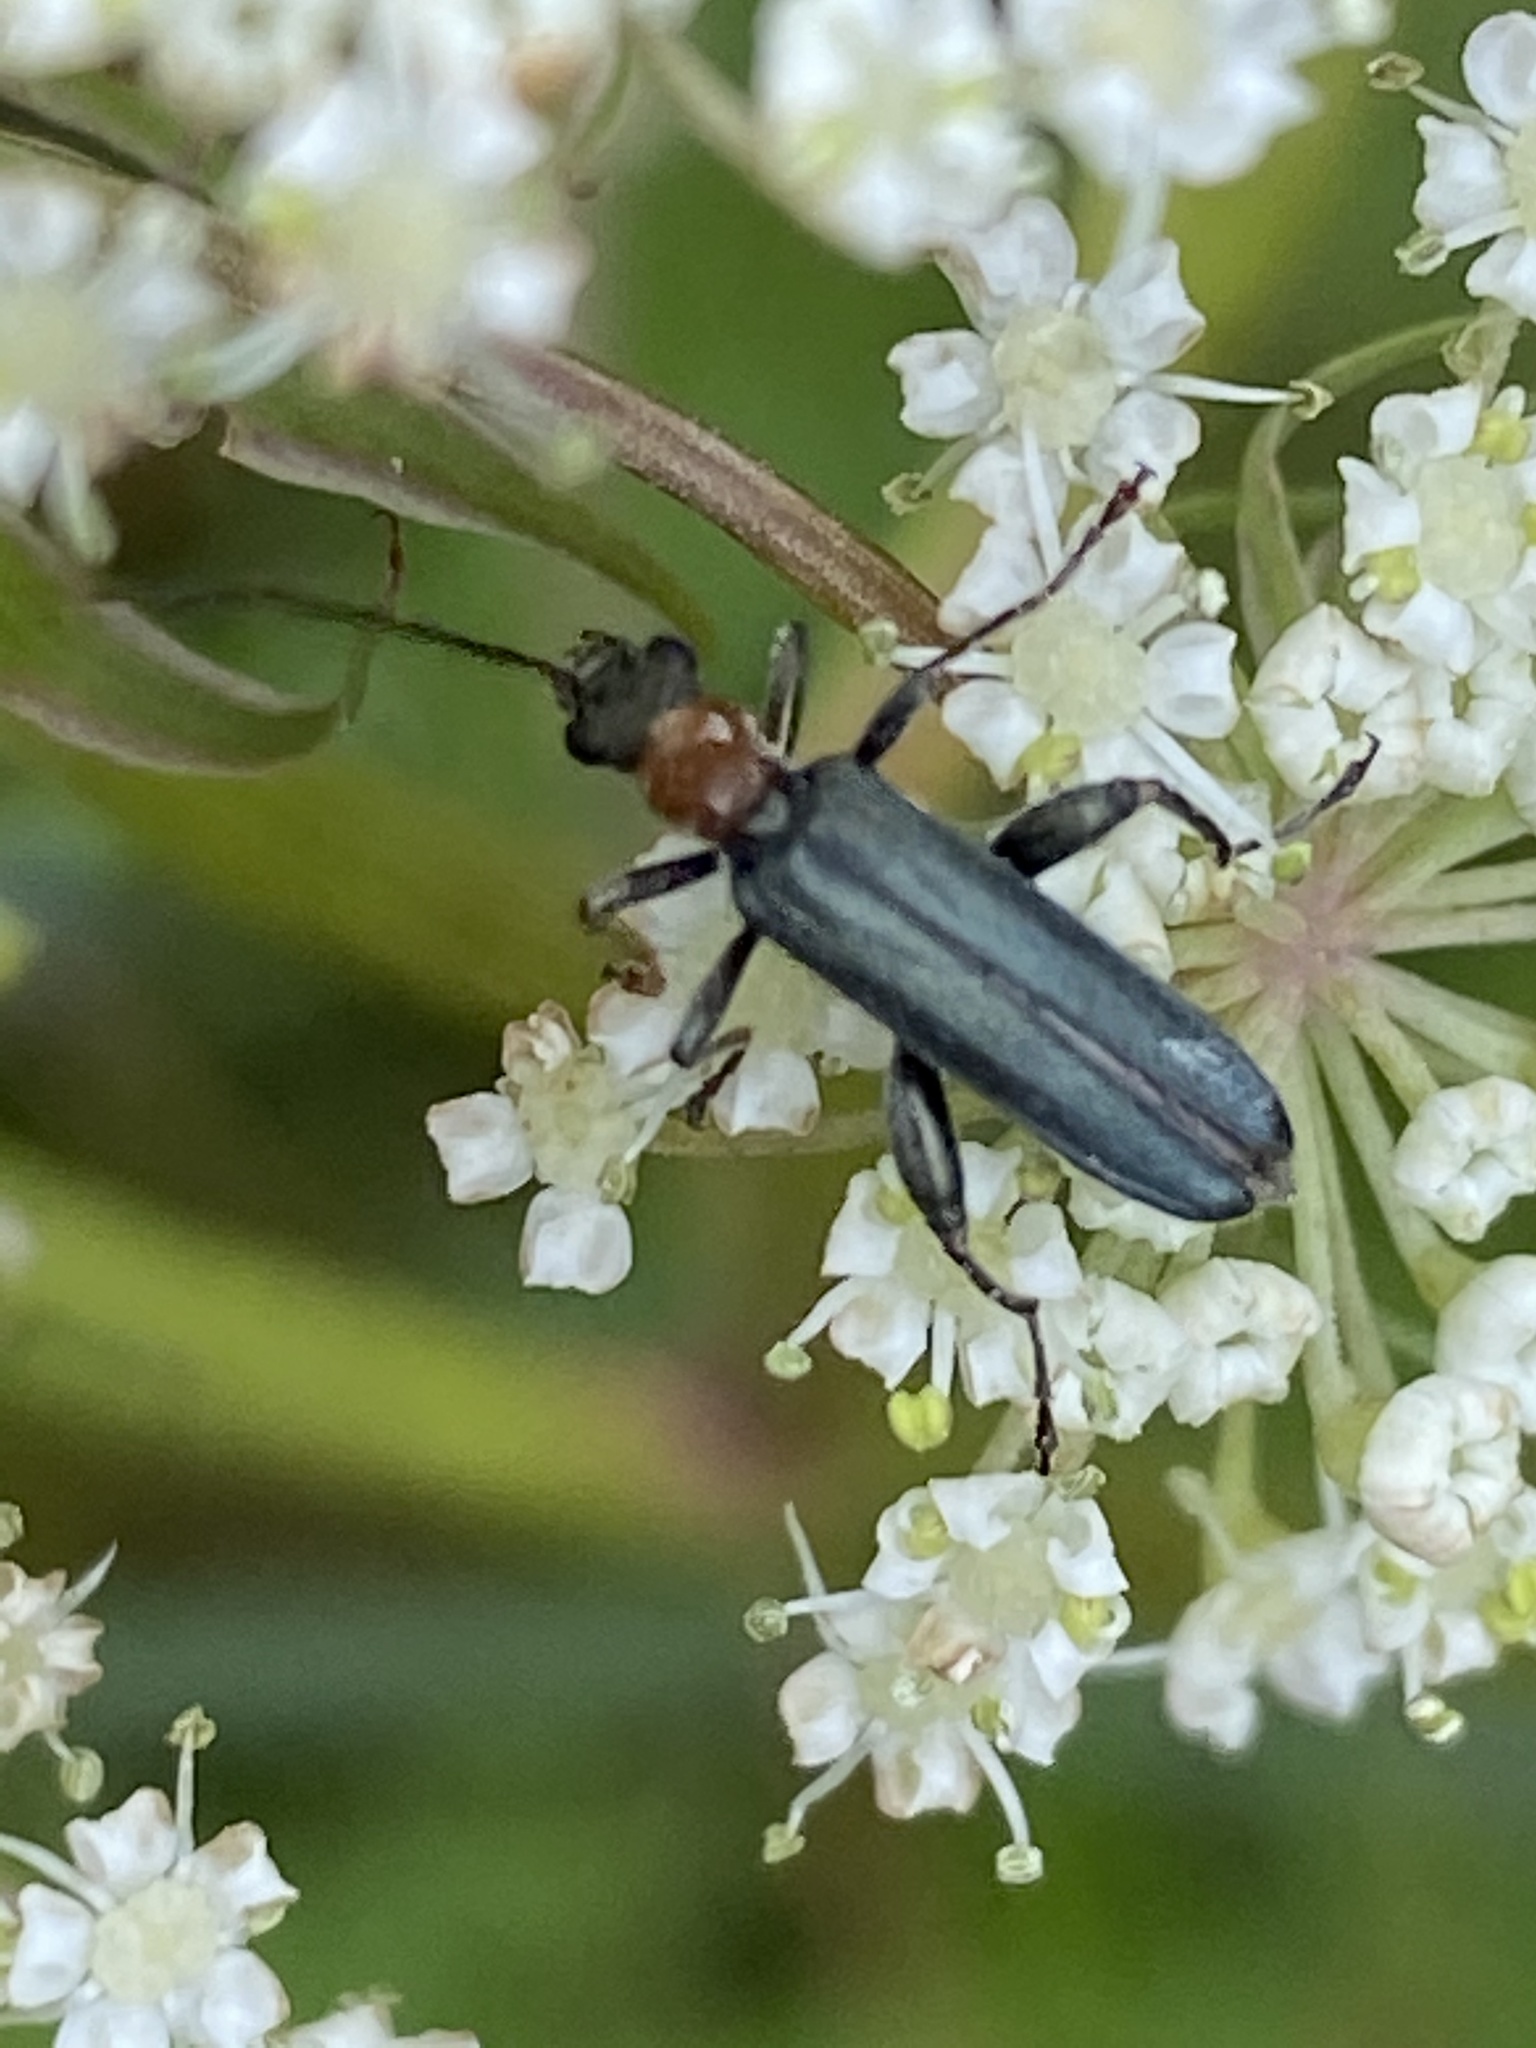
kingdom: Animalia
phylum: Arthropoda
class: Insecta
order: Coleoptera
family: Oedemeridae
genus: Oedemera
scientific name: Oedemera croceicollis
